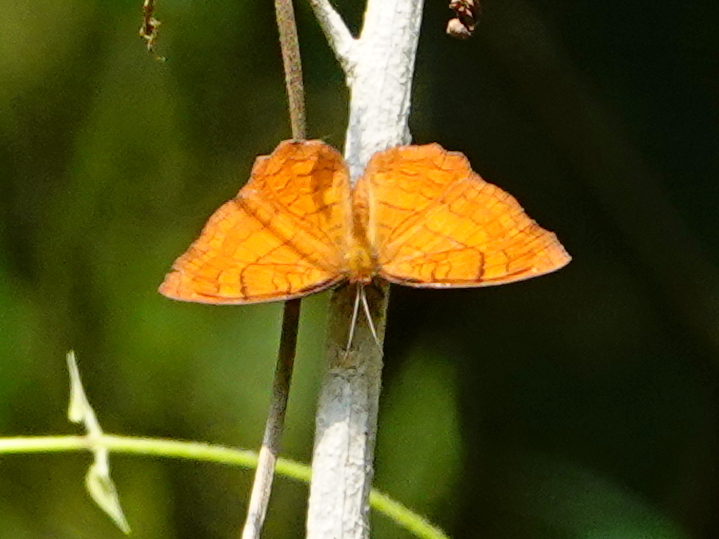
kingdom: Animalia
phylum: Arthropoda
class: Insecta
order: Lepidoptera
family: Nymphalidae
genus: Ariadne
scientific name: Ariadne ariadne
